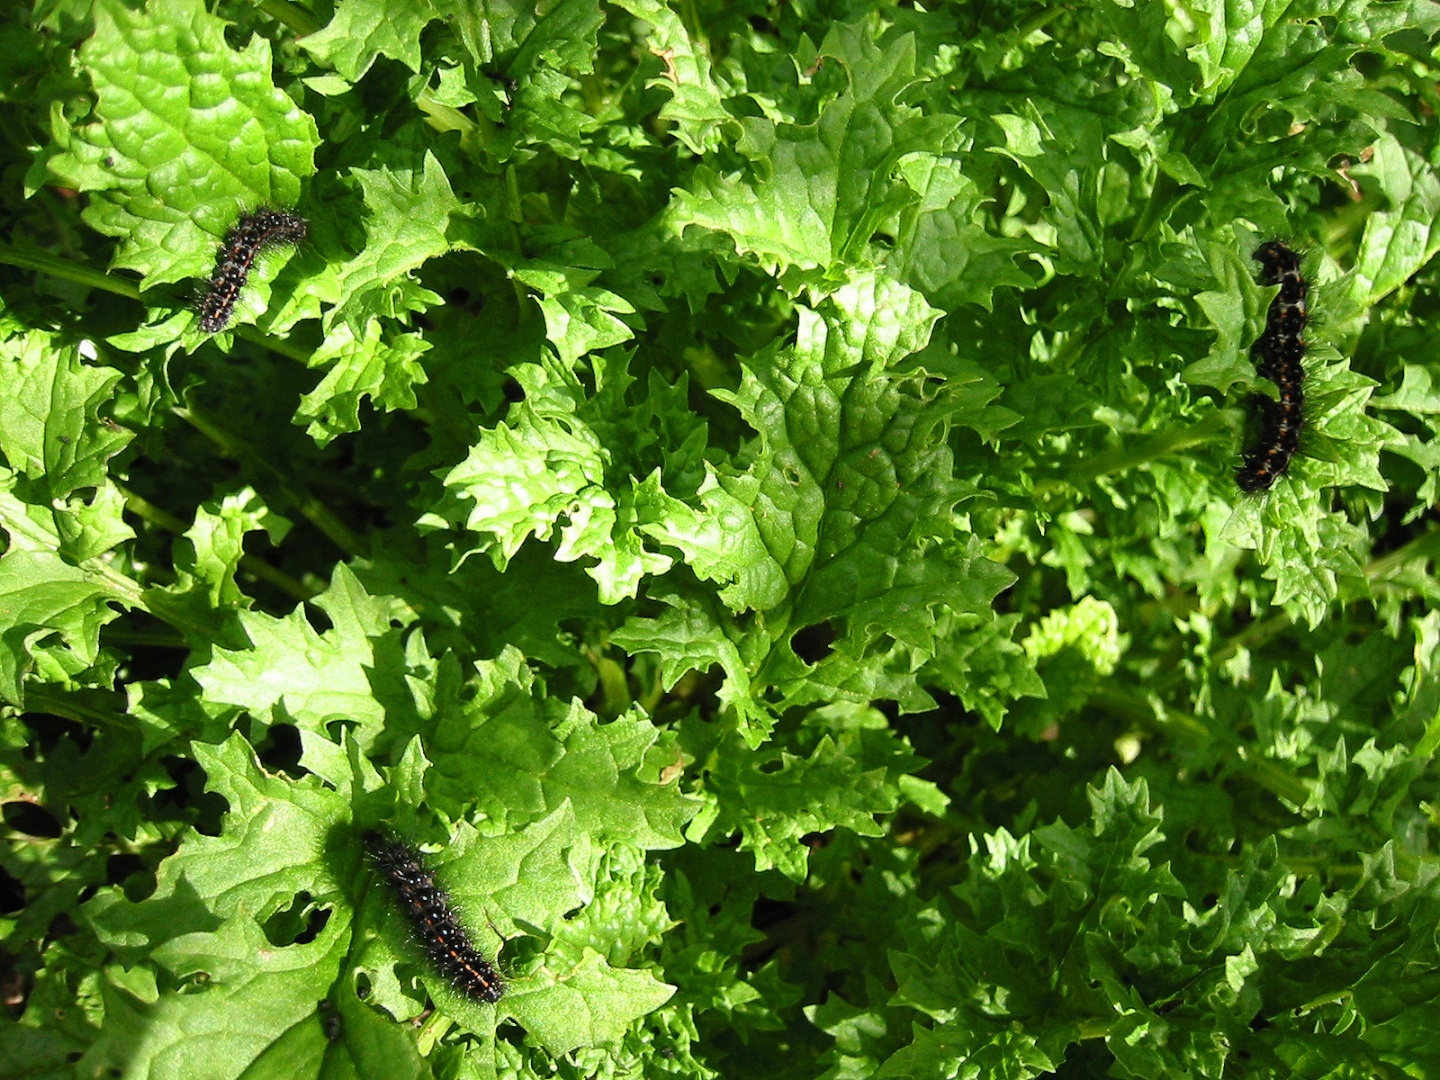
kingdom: Animalia
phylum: Arthropoda
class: Insecta
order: Lepidoptera
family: Erebidae
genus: Nyctemera
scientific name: Nyctemera annulatum
